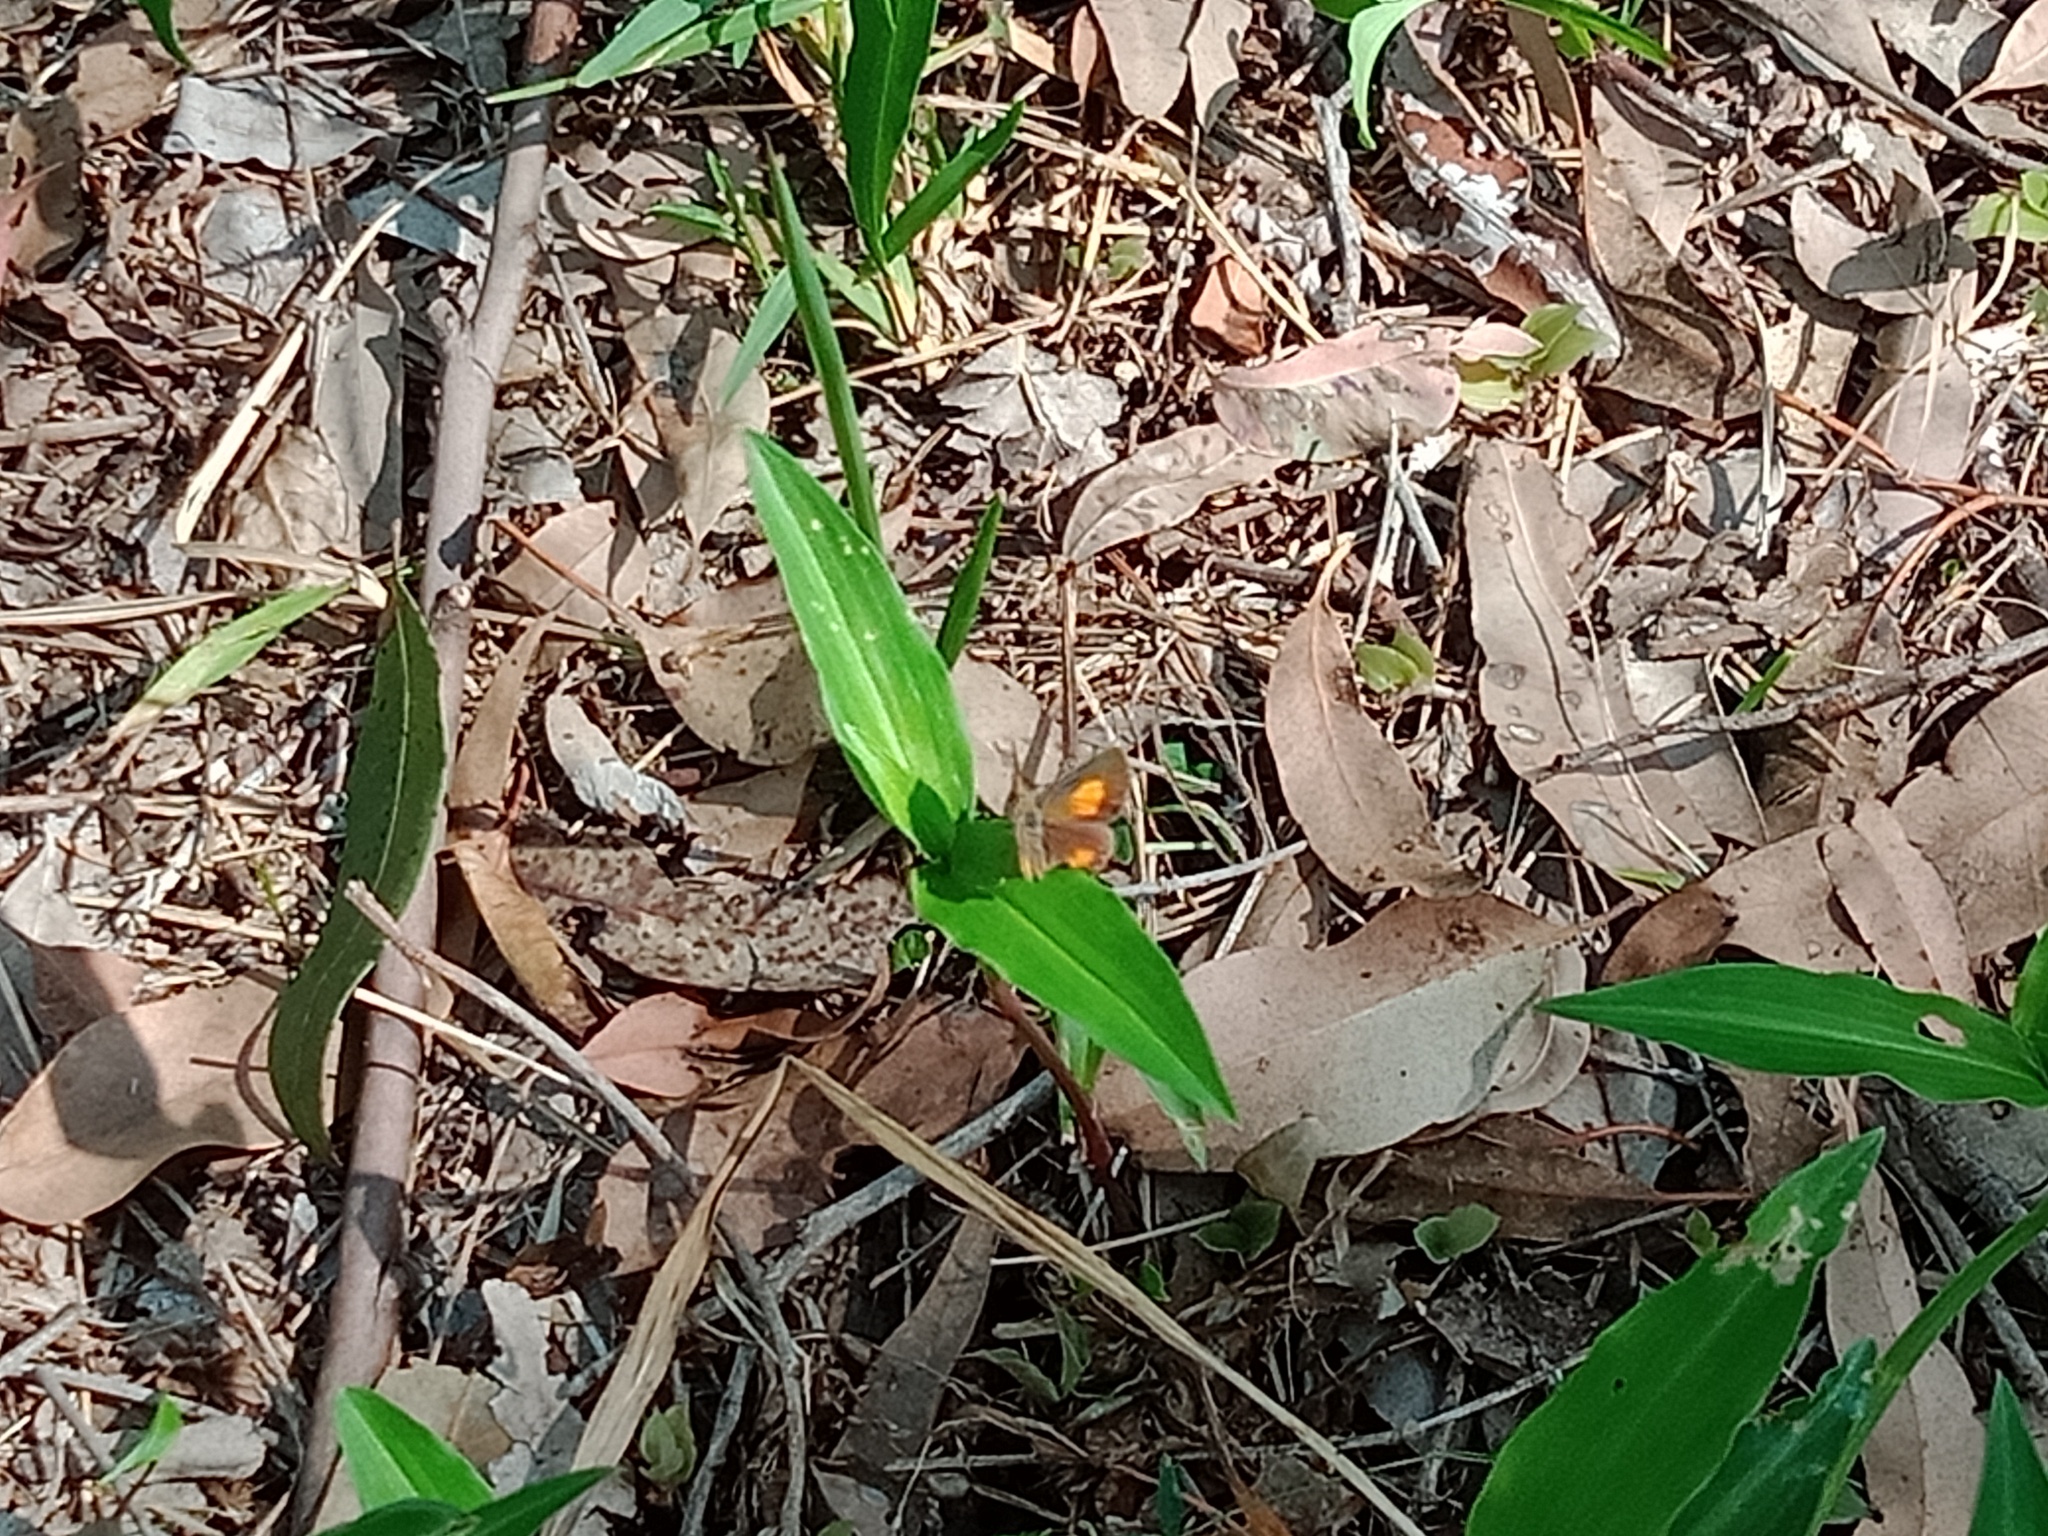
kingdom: Animalia
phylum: Arthropoda
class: Insecta
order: Lepidoptera
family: Lycaenidae
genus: Paralucia
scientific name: Paralucia aurifer
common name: Bright copper
